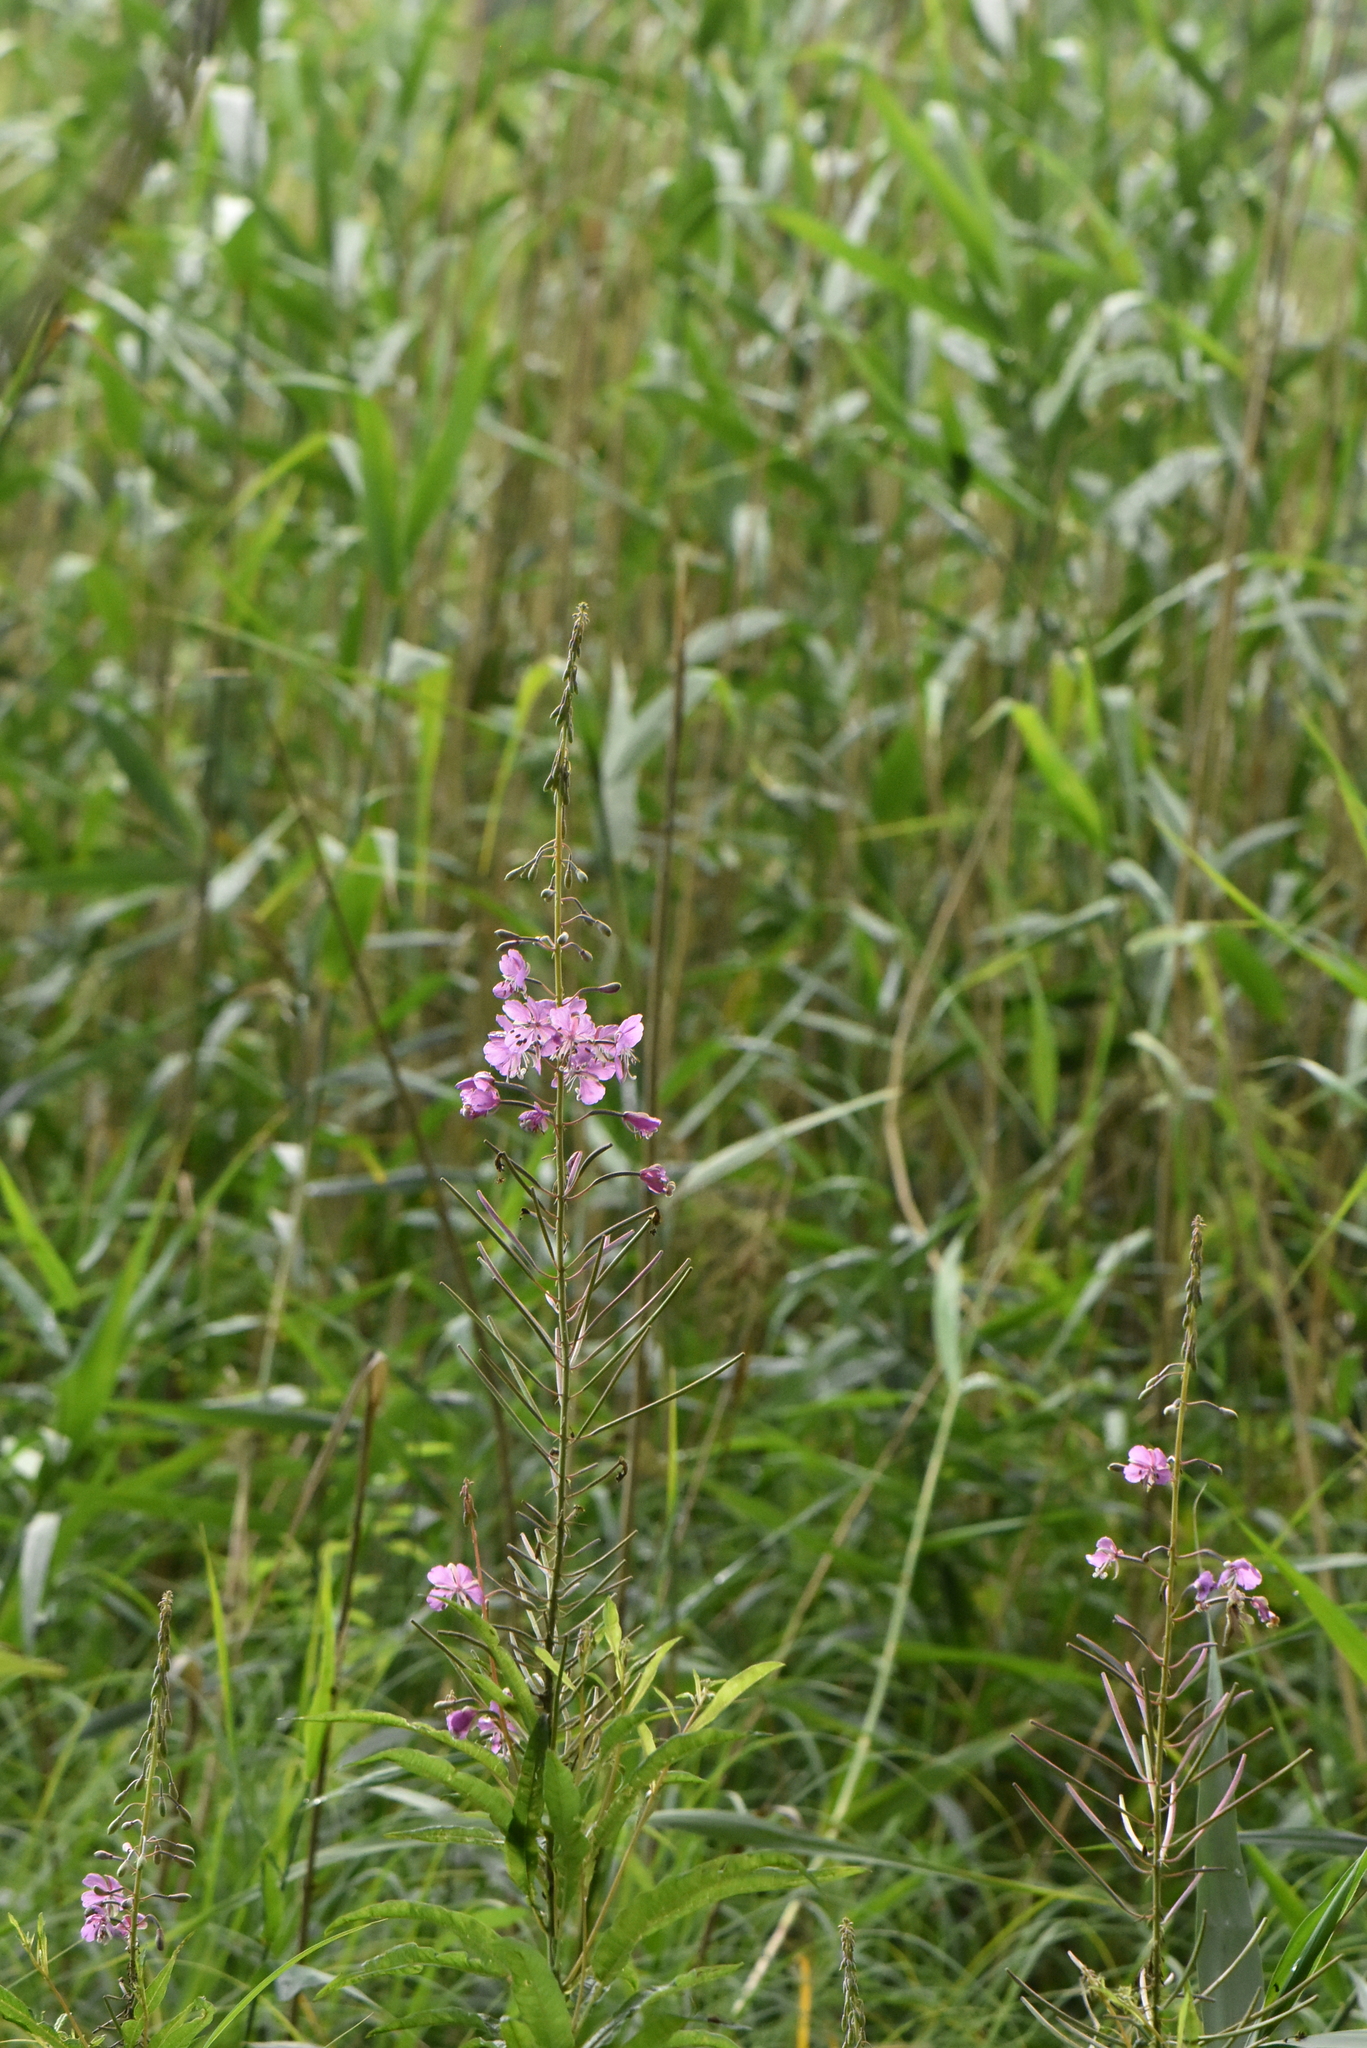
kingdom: Plantae
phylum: Tracheophyta
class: Magnoliopsida
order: Myrtales
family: Onagraceae
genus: Chamaenerion
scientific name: Chamaenerion angustifolium
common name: Fireweed
